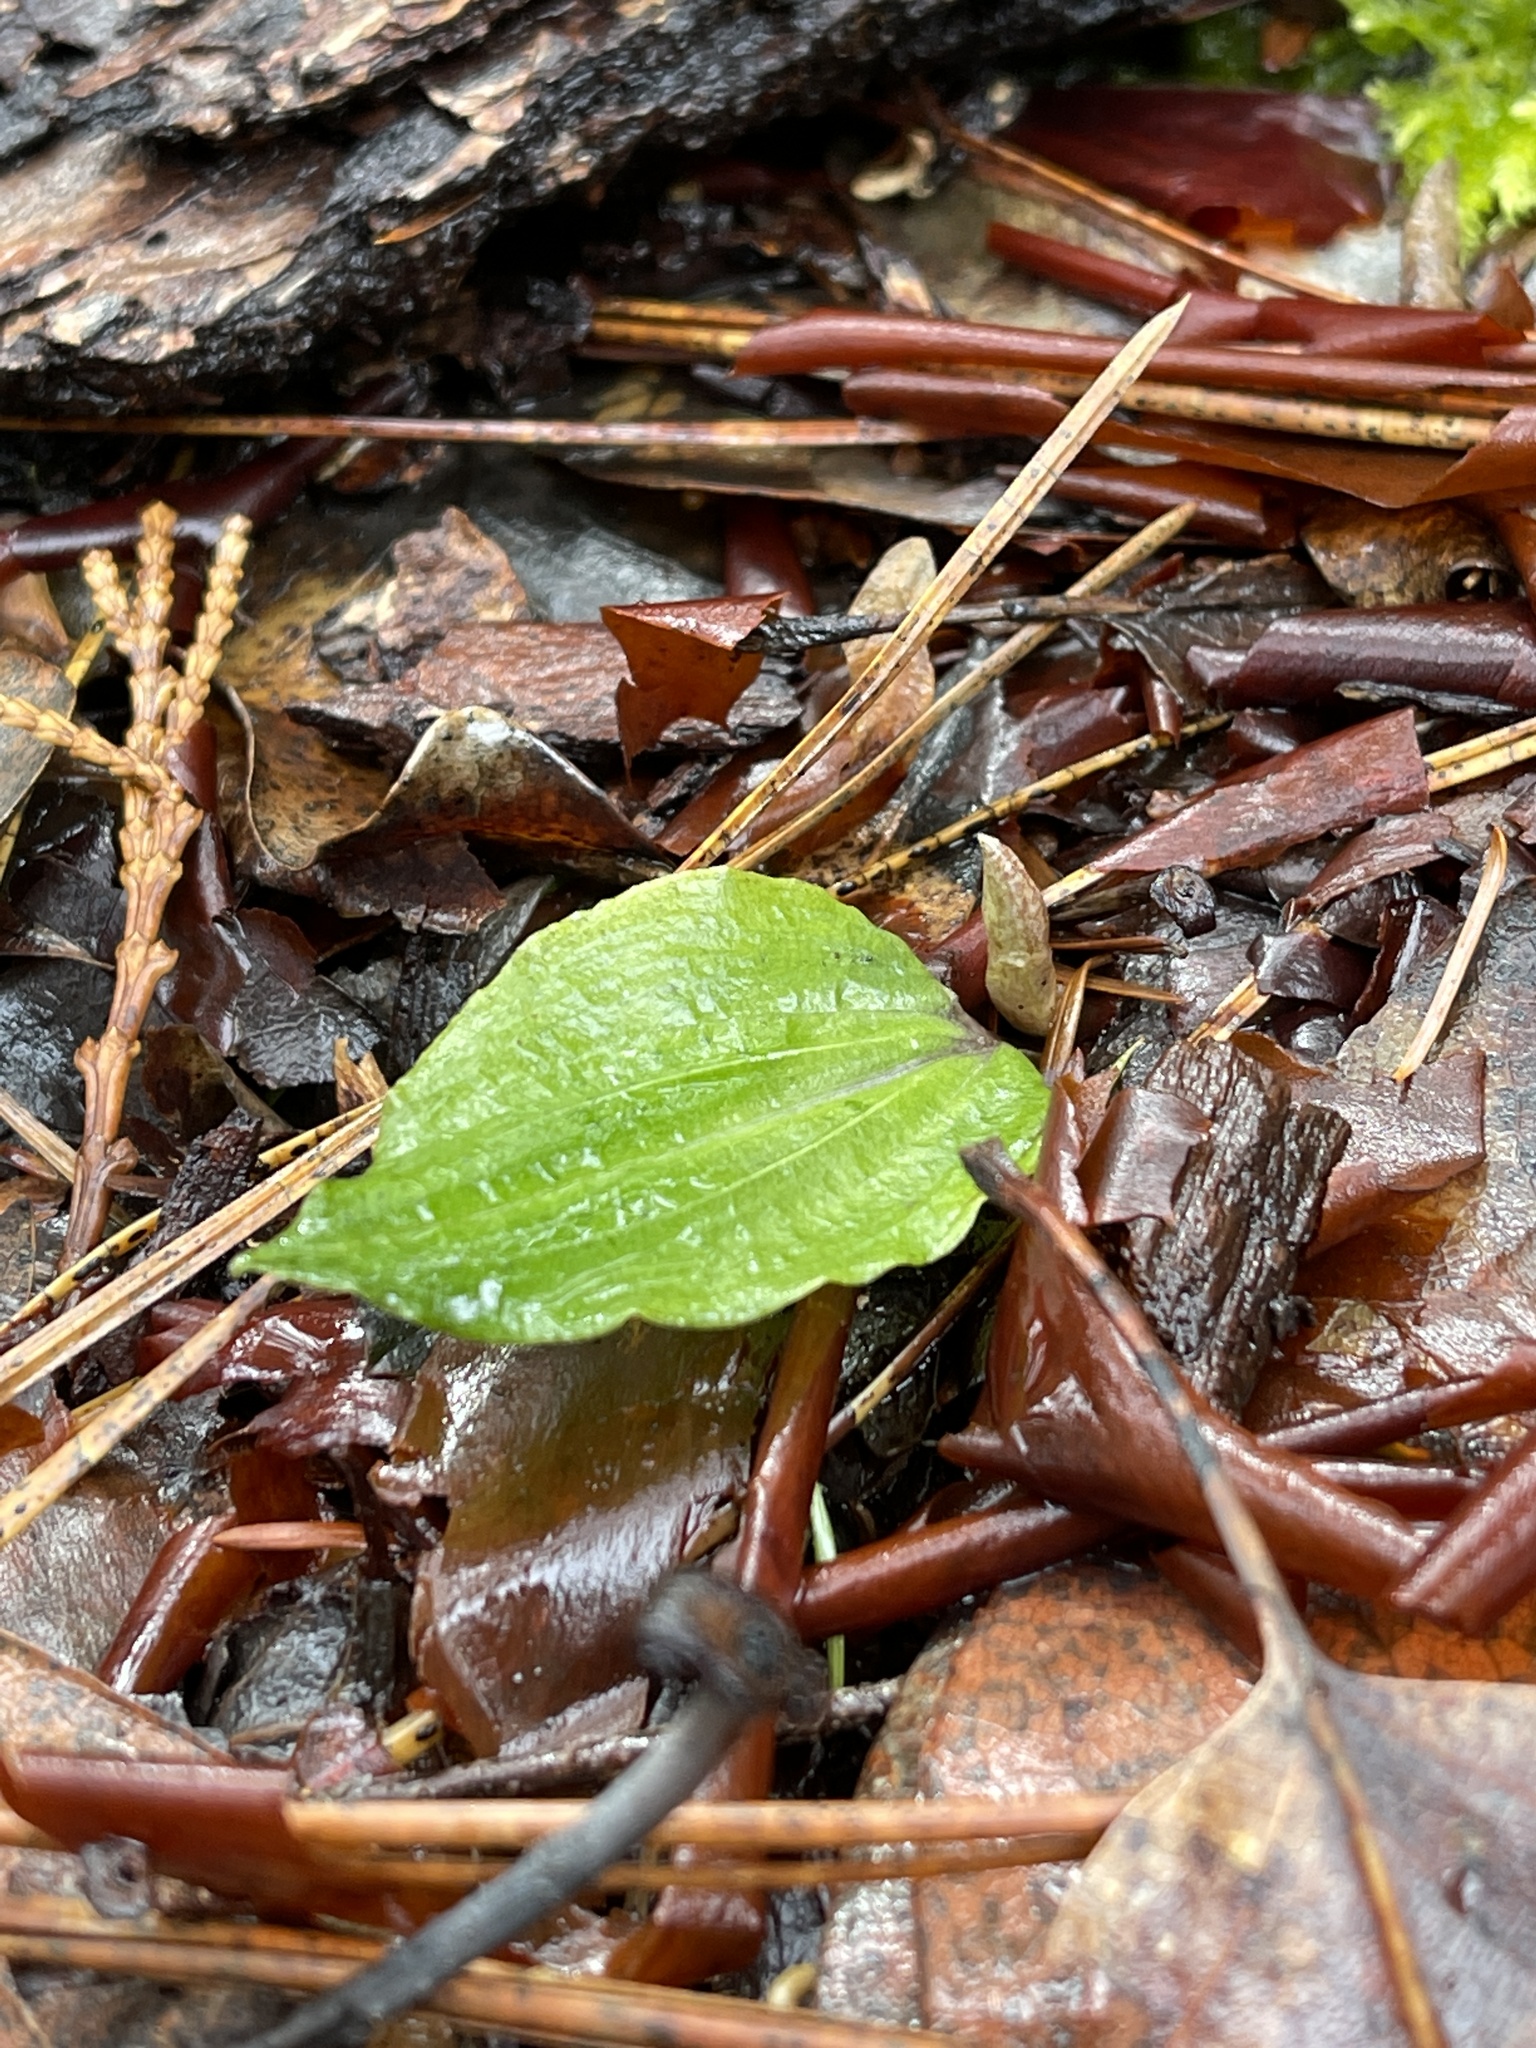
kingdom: Plantae
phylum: Tracheophyta
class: Liliopsida
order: Asparagales
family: Orchidaceae
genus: Calypso
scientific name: Calypso bulbosa
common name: Calypso
